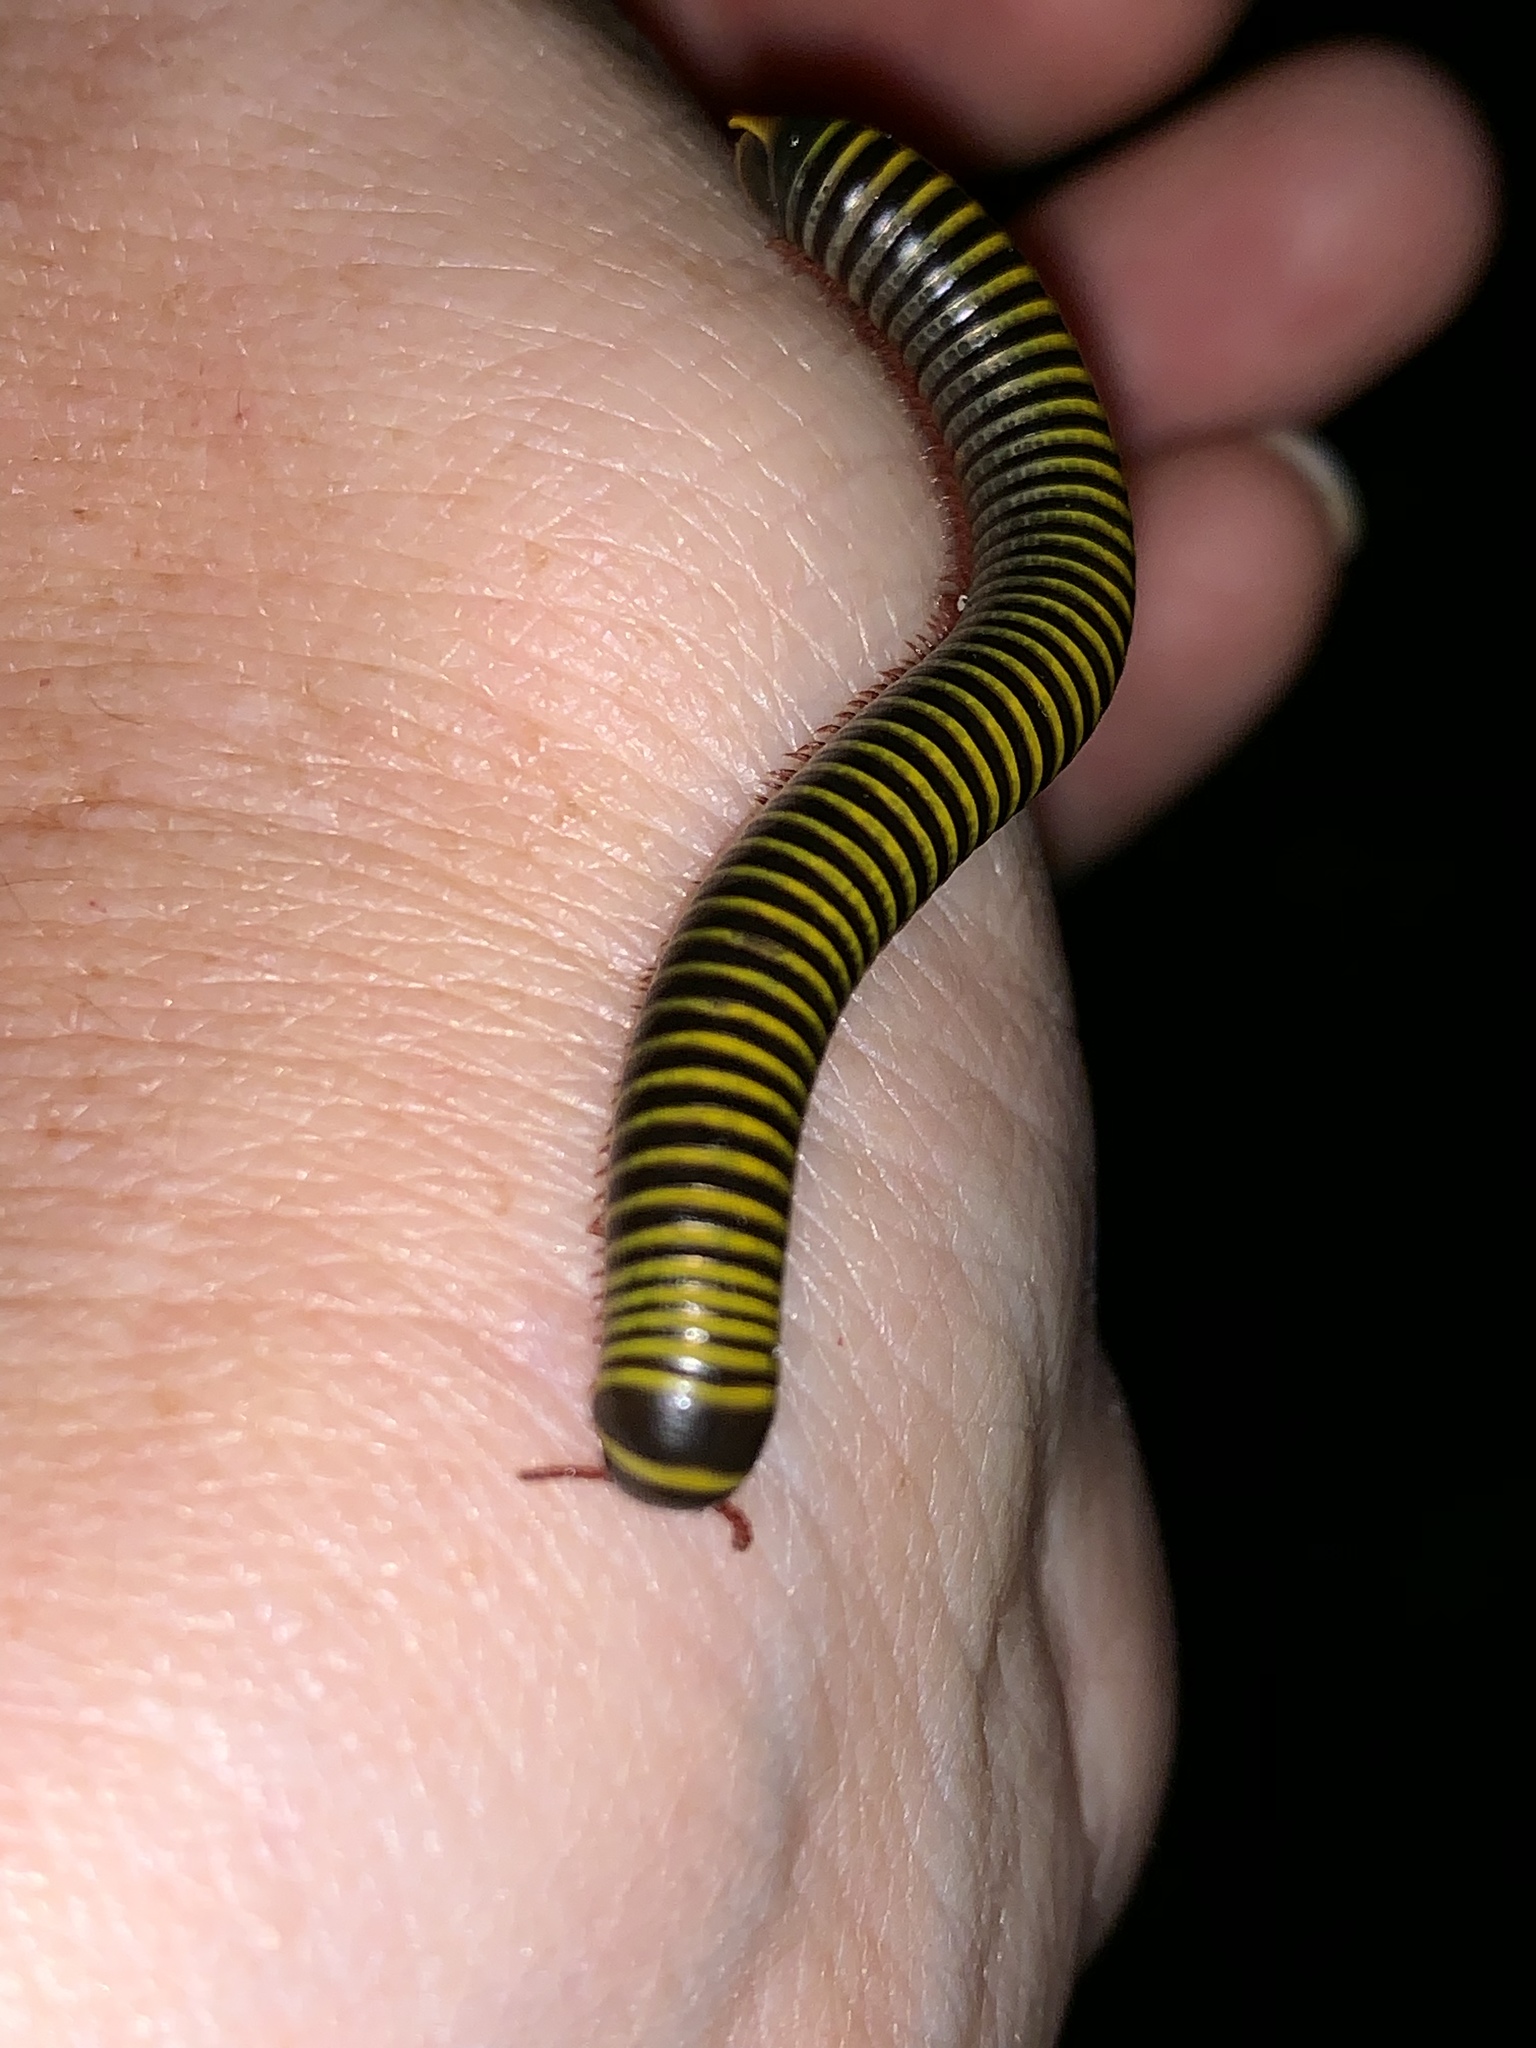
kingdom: Animalia
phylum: Arthropoda
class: Diplopoda
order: Spirobolida
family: Rhinocricidae
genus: Anadenobolus
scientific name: Anadenobolus monilicornis
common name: Caribbean millipede
